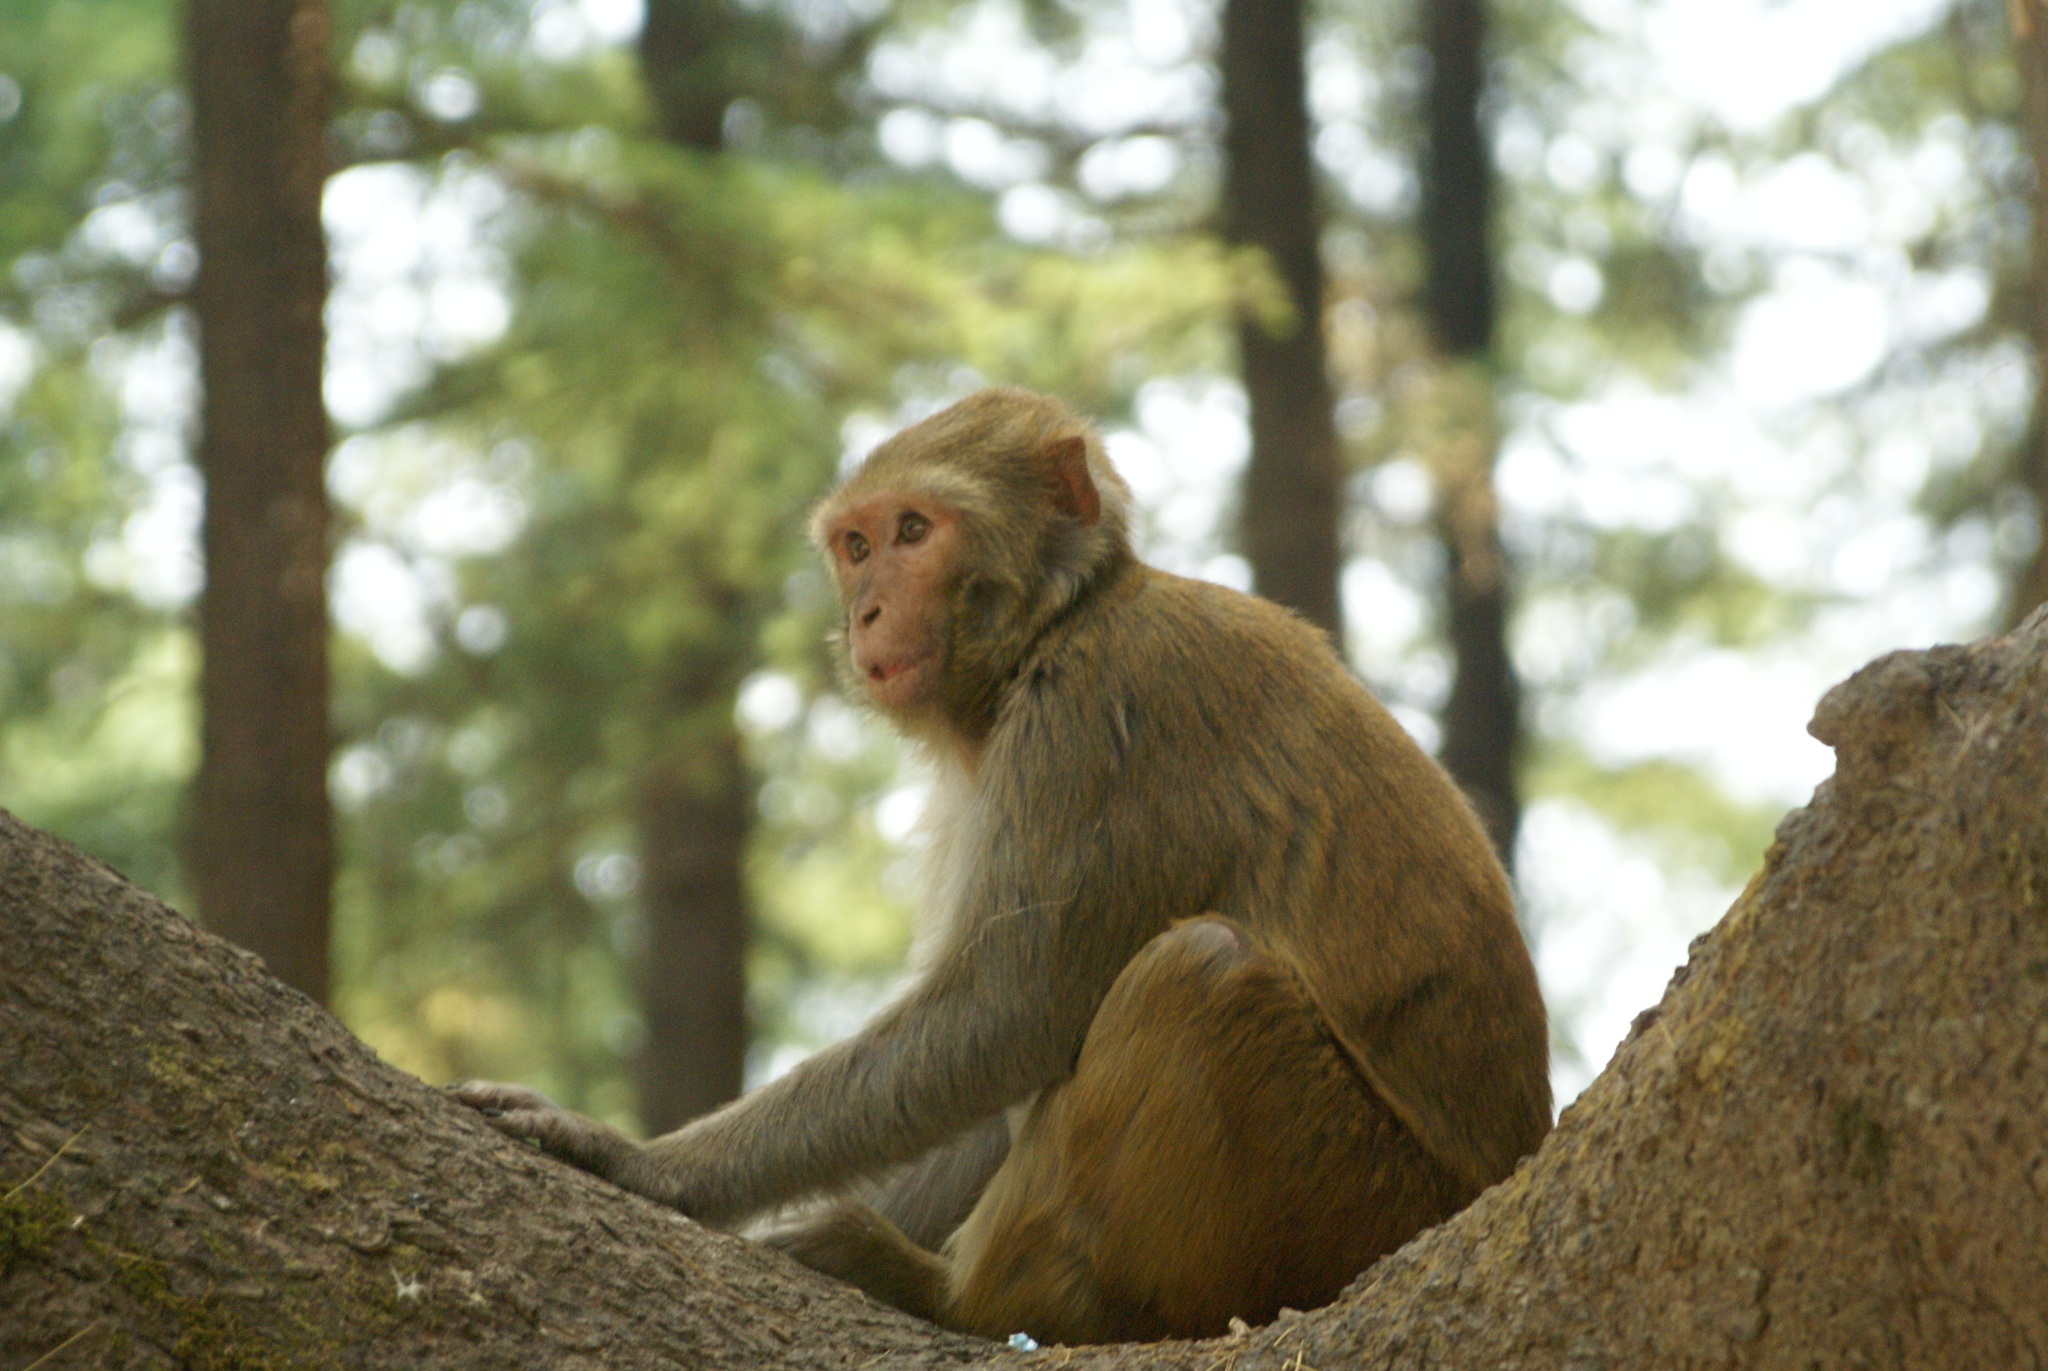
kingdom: Animalia
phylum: Chordata
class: Mammalia
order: Primates
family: Cercopithecidae
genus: Macaca
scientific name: Macaca mulatta
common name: Rhesus monkey
